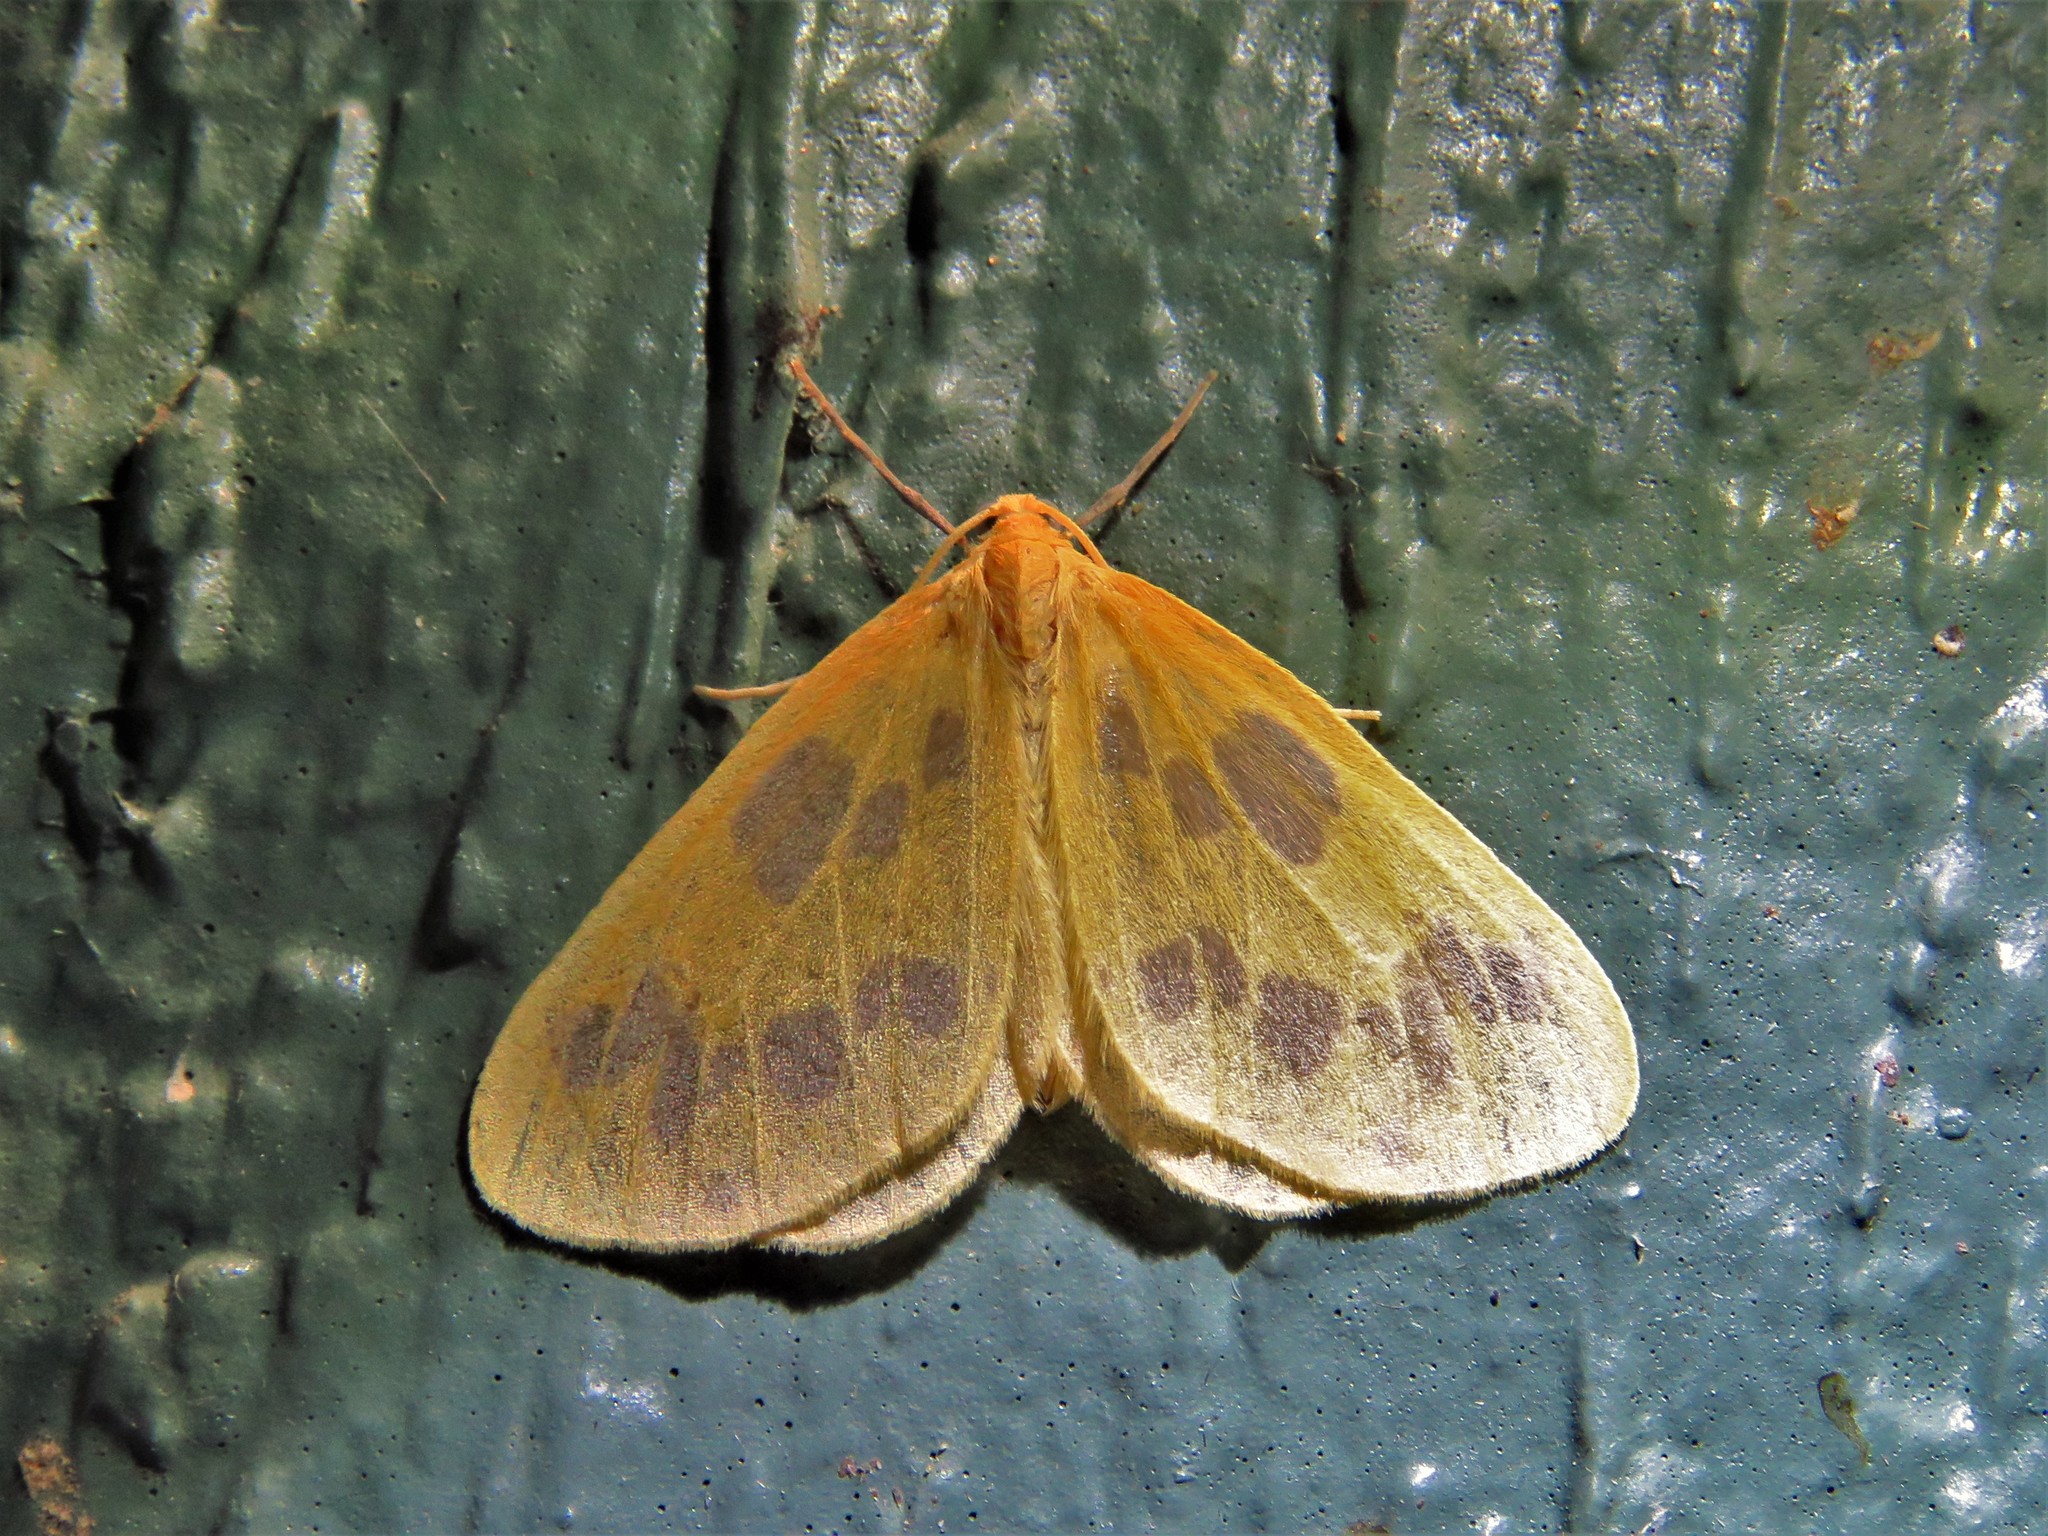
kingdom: Animalia
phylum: Arthropoda
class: Insecta
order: Lepidoptera
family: Geometridae
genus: Eubaphe
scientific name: Eubaphe mendica
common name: Beggar
